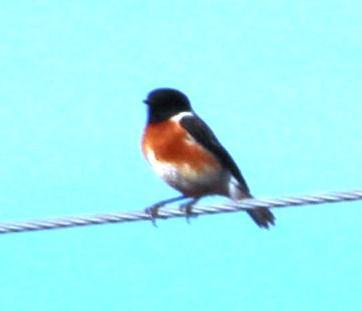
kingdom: Animalia
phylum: Chordata
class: Aves
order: Passeriformes
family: Muscicapidae
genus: Saxicola
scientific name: Saxicola torquatus
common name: African stonechat
